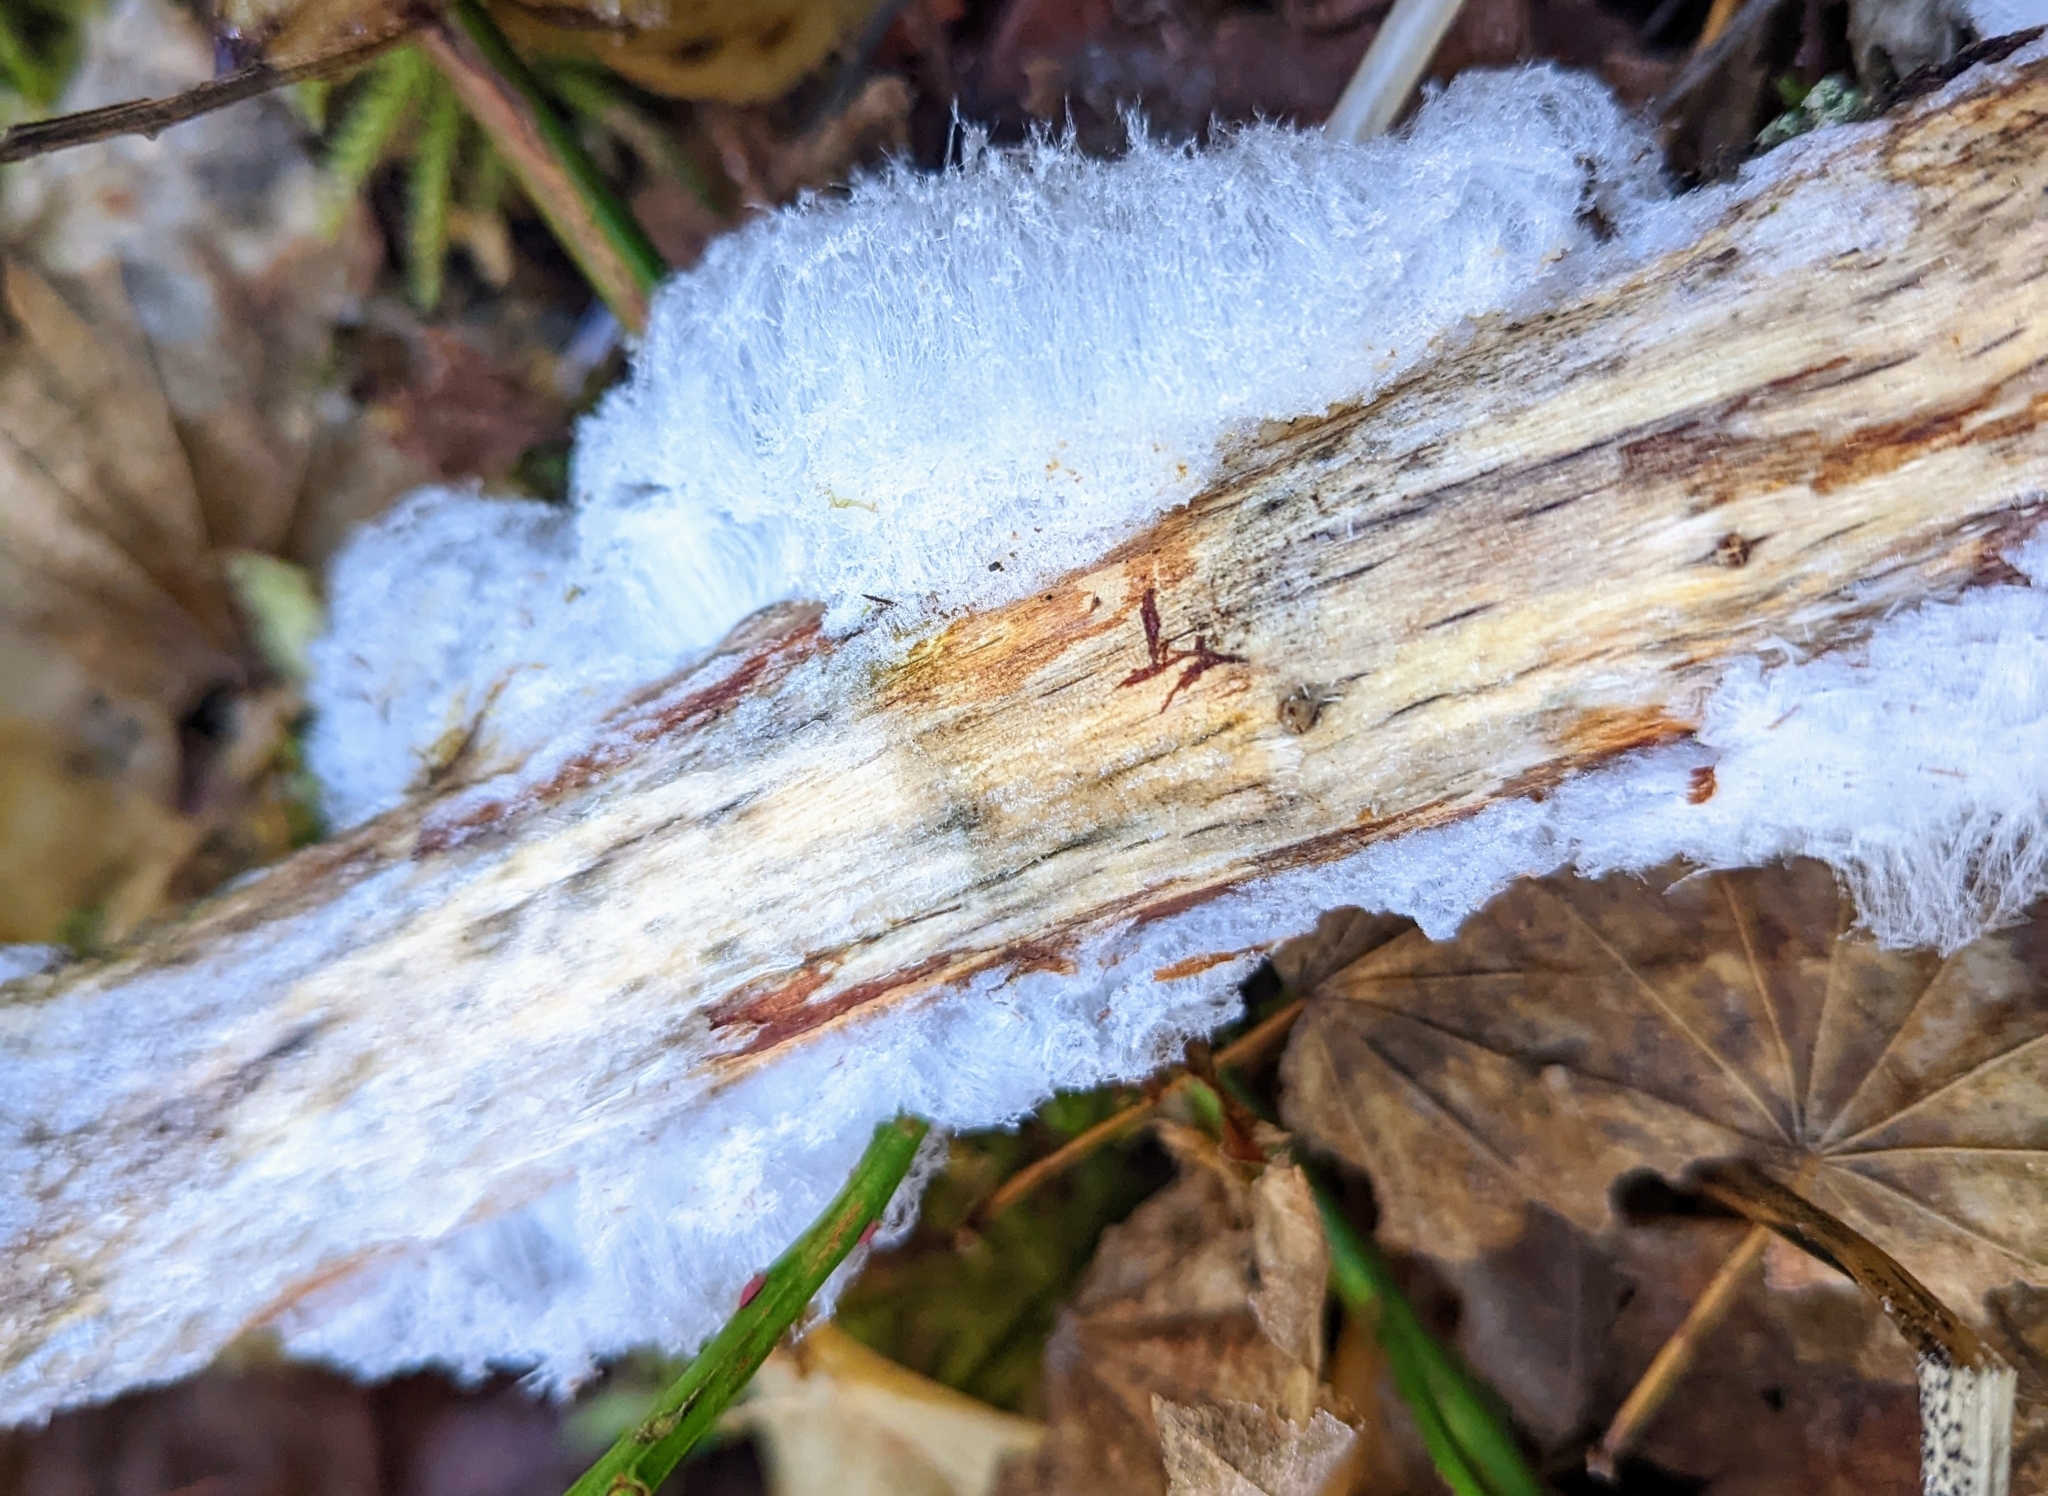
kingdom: Fungi
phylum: Basidiomycota
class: Agaricomycetes
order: Auriculariales
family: Auriculariaceae
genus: Exidiopsis
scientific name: Exidiopsis effusa
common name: Hair ice crust
